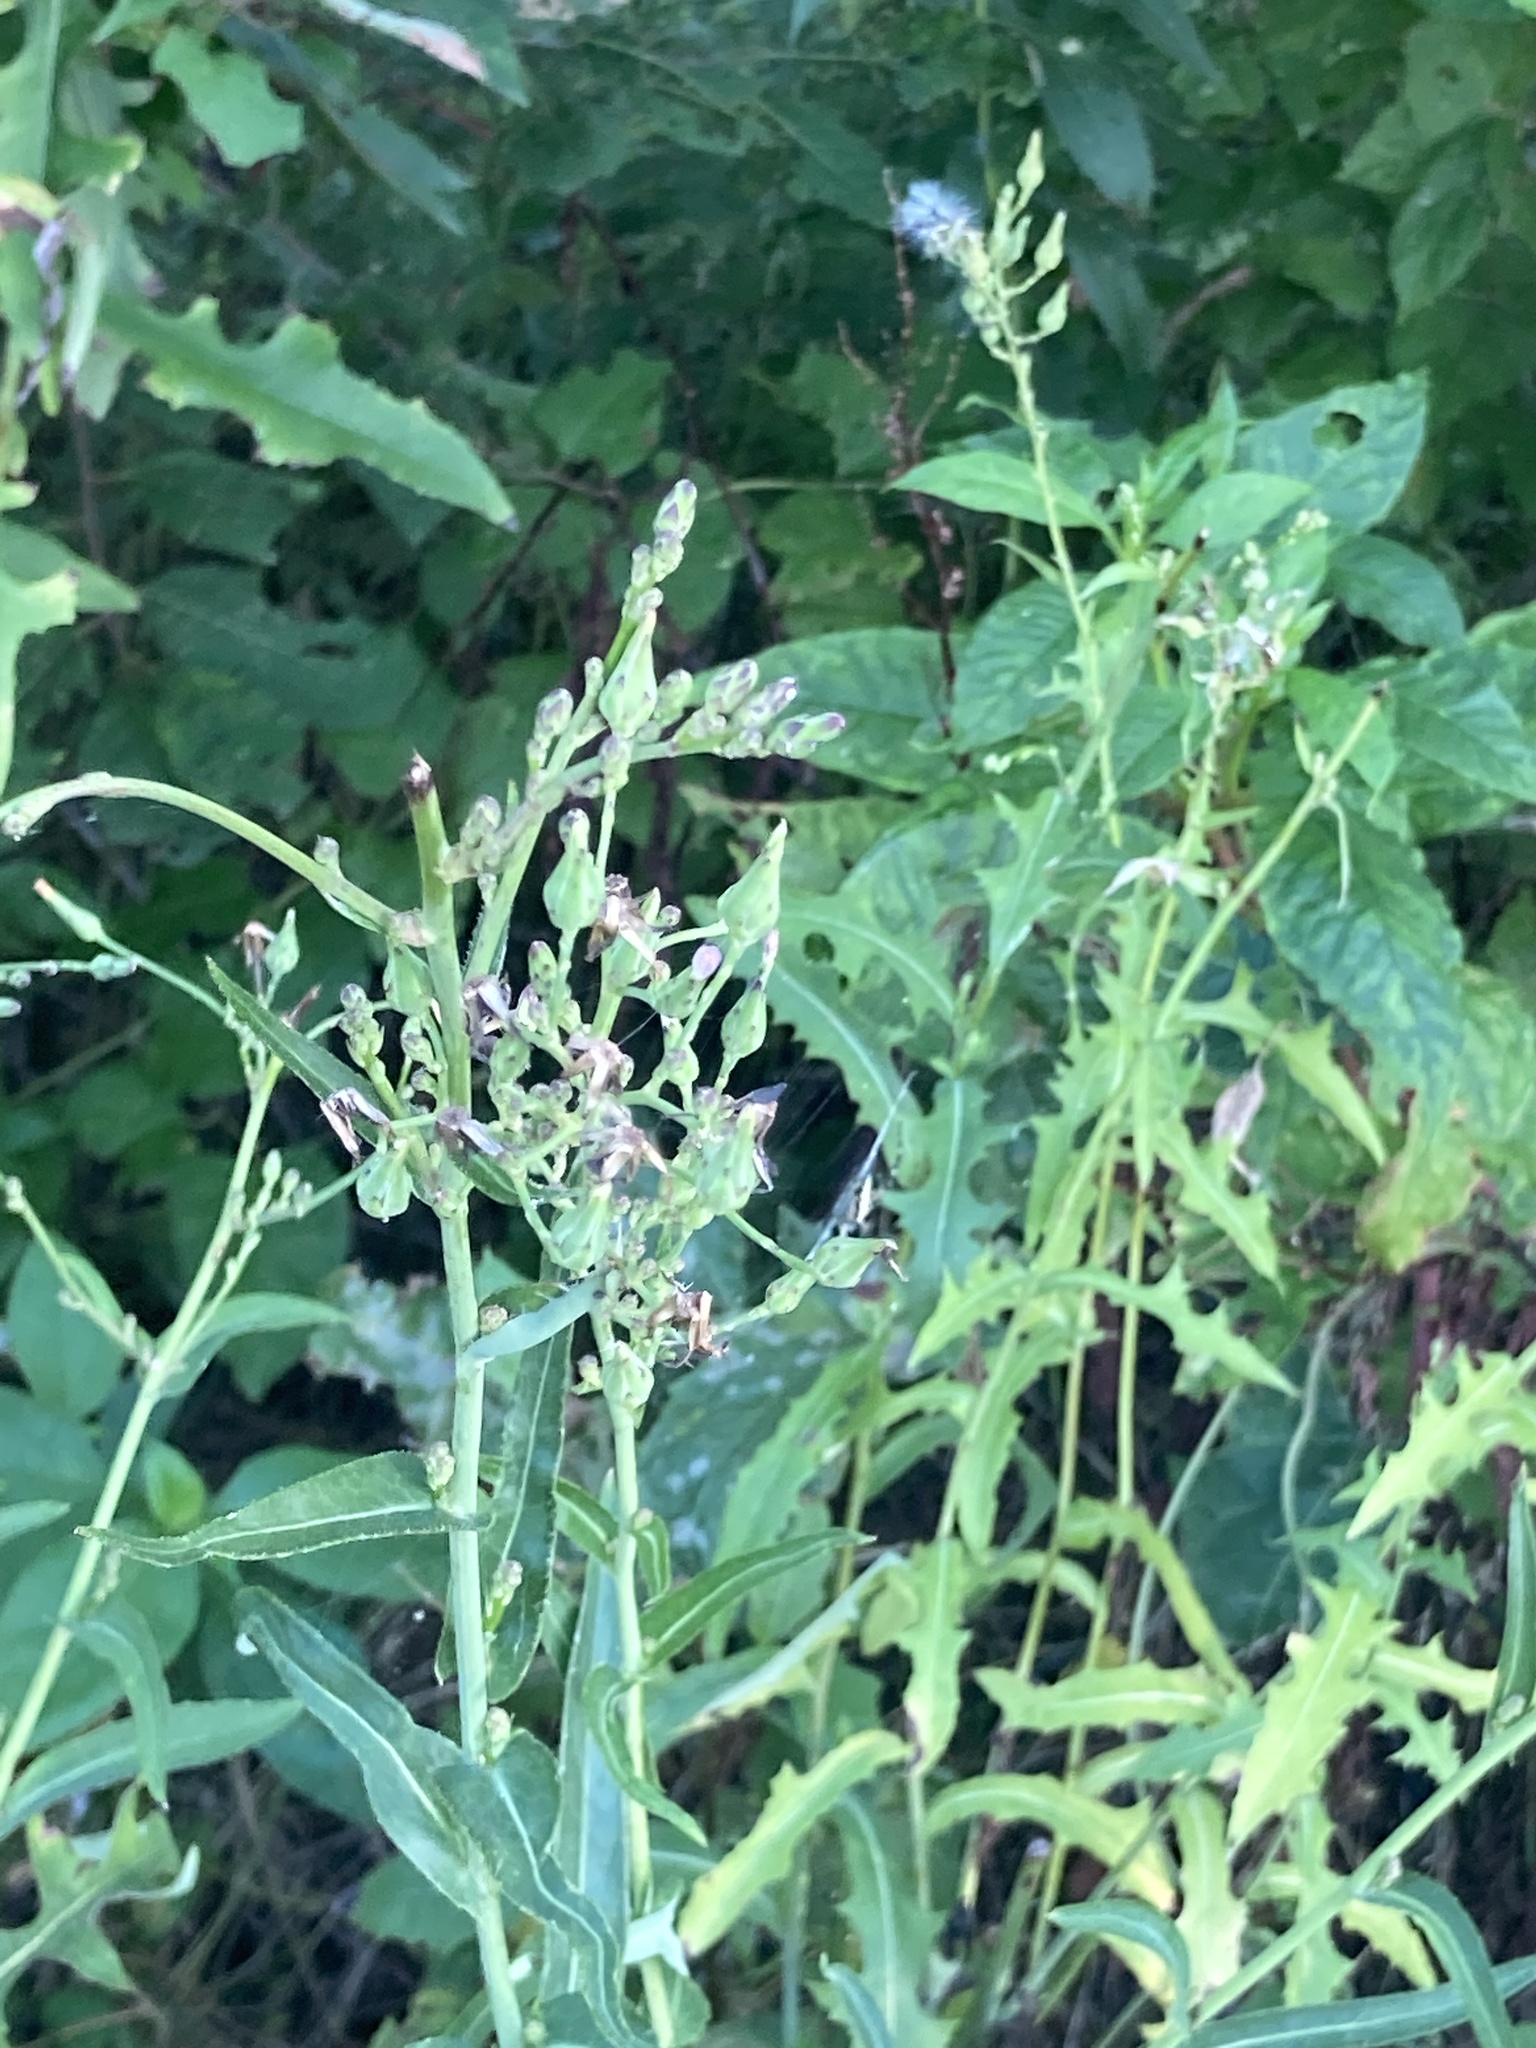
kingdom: Plantae
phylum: Tracheophyta
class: Magnoliopsida
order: Asterales
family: Asteraceae
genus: Lactuca
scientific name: Lactuca canadensis
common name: Canada lettuce
